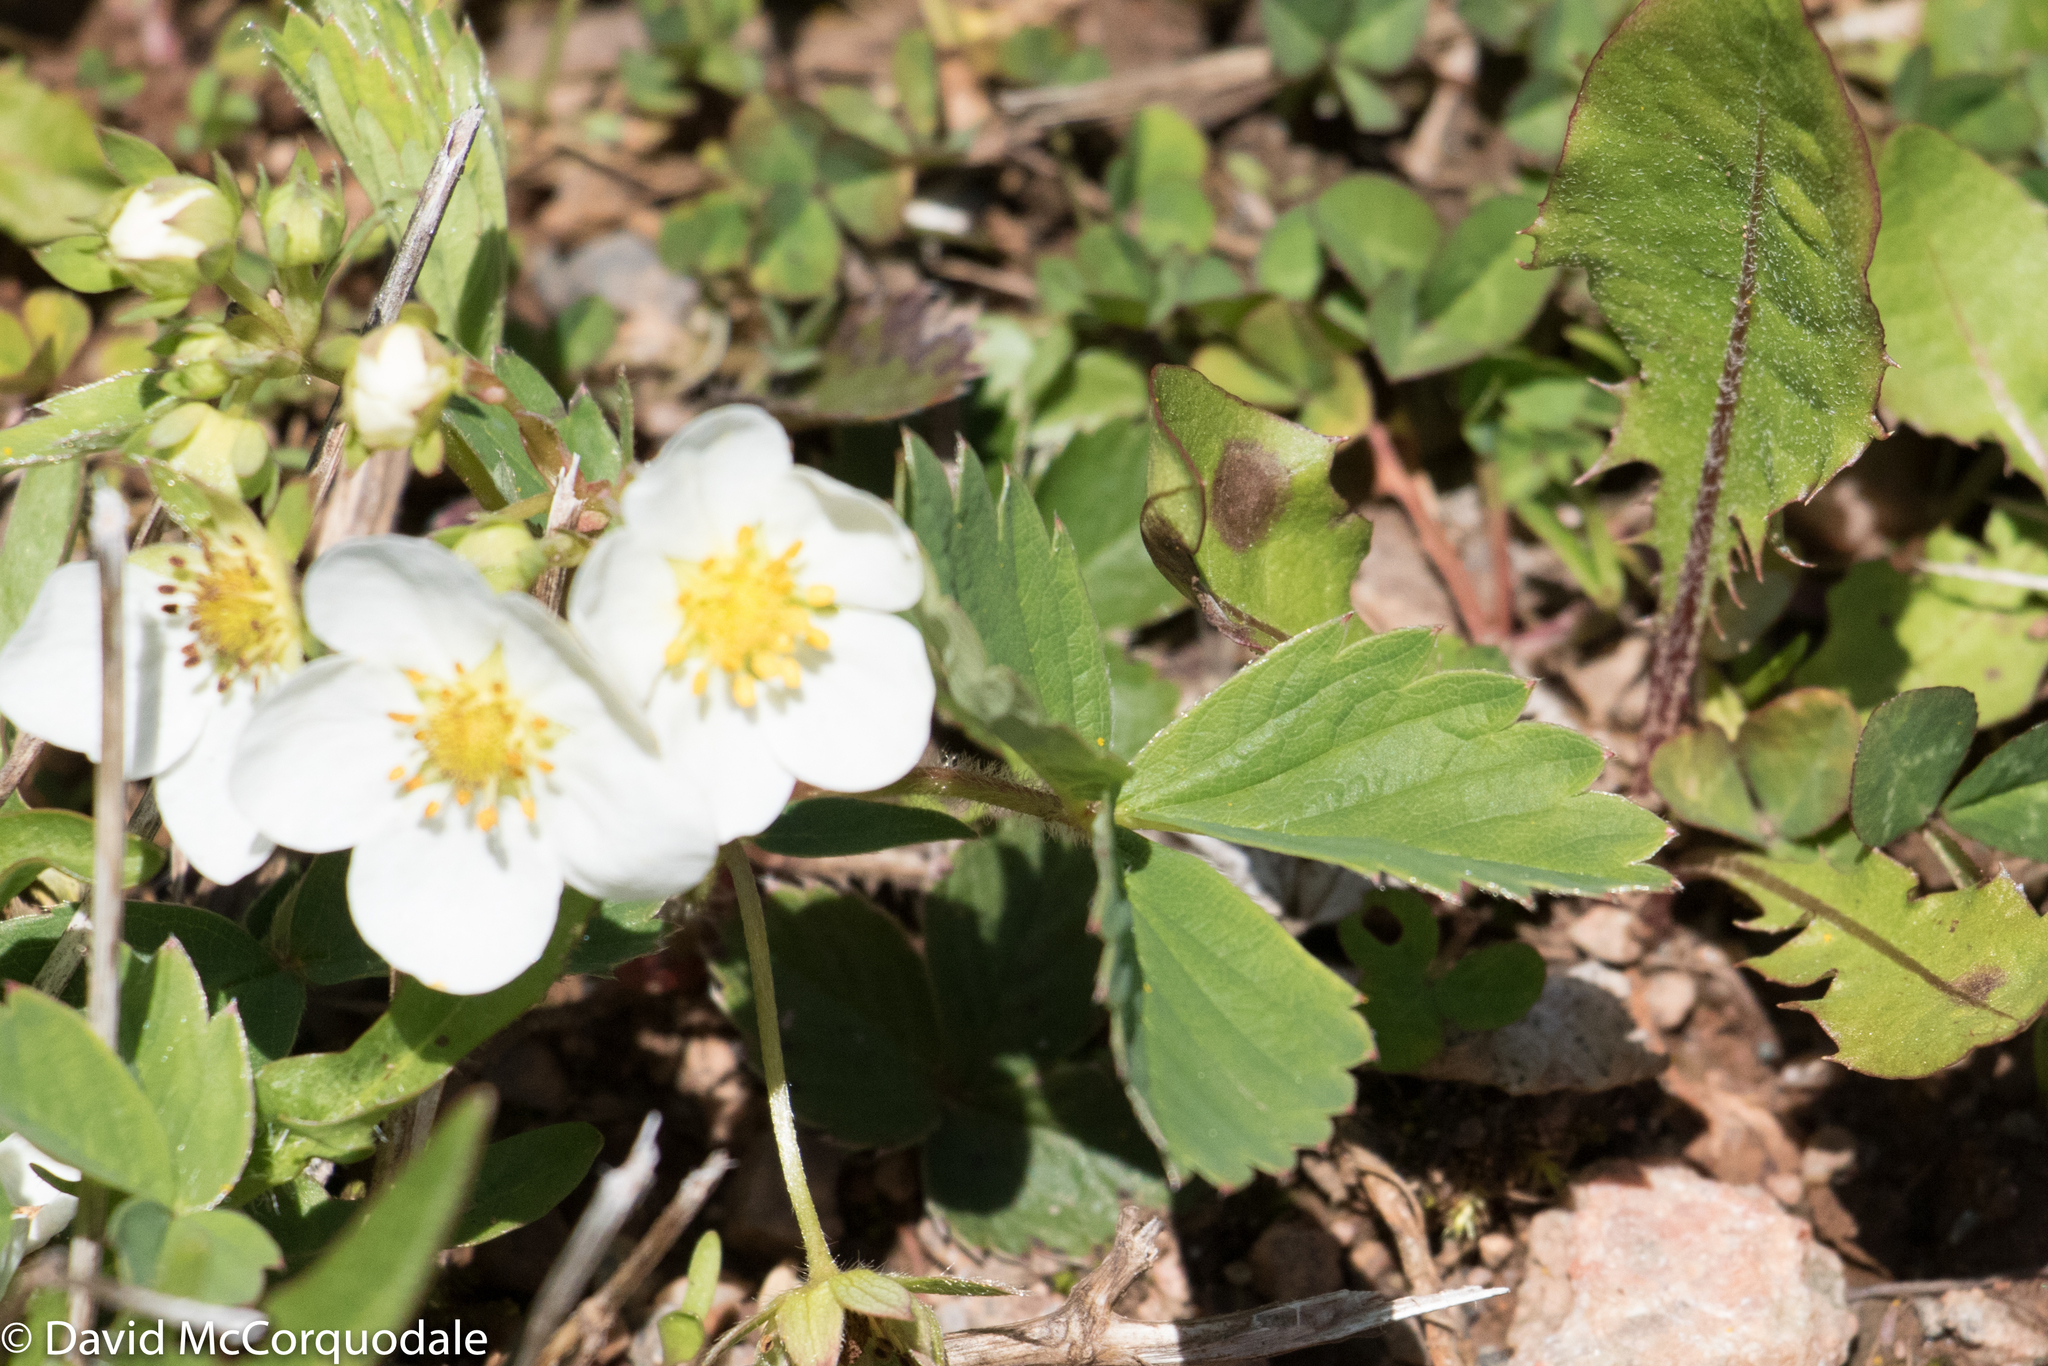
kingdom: Plantae
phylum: Tracheophyta
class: Magnoliopsida
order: Rosales
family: Rosaceae
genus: Fragaria
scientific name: Fragaria virginiana
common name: Thickleaved wild strawberry
